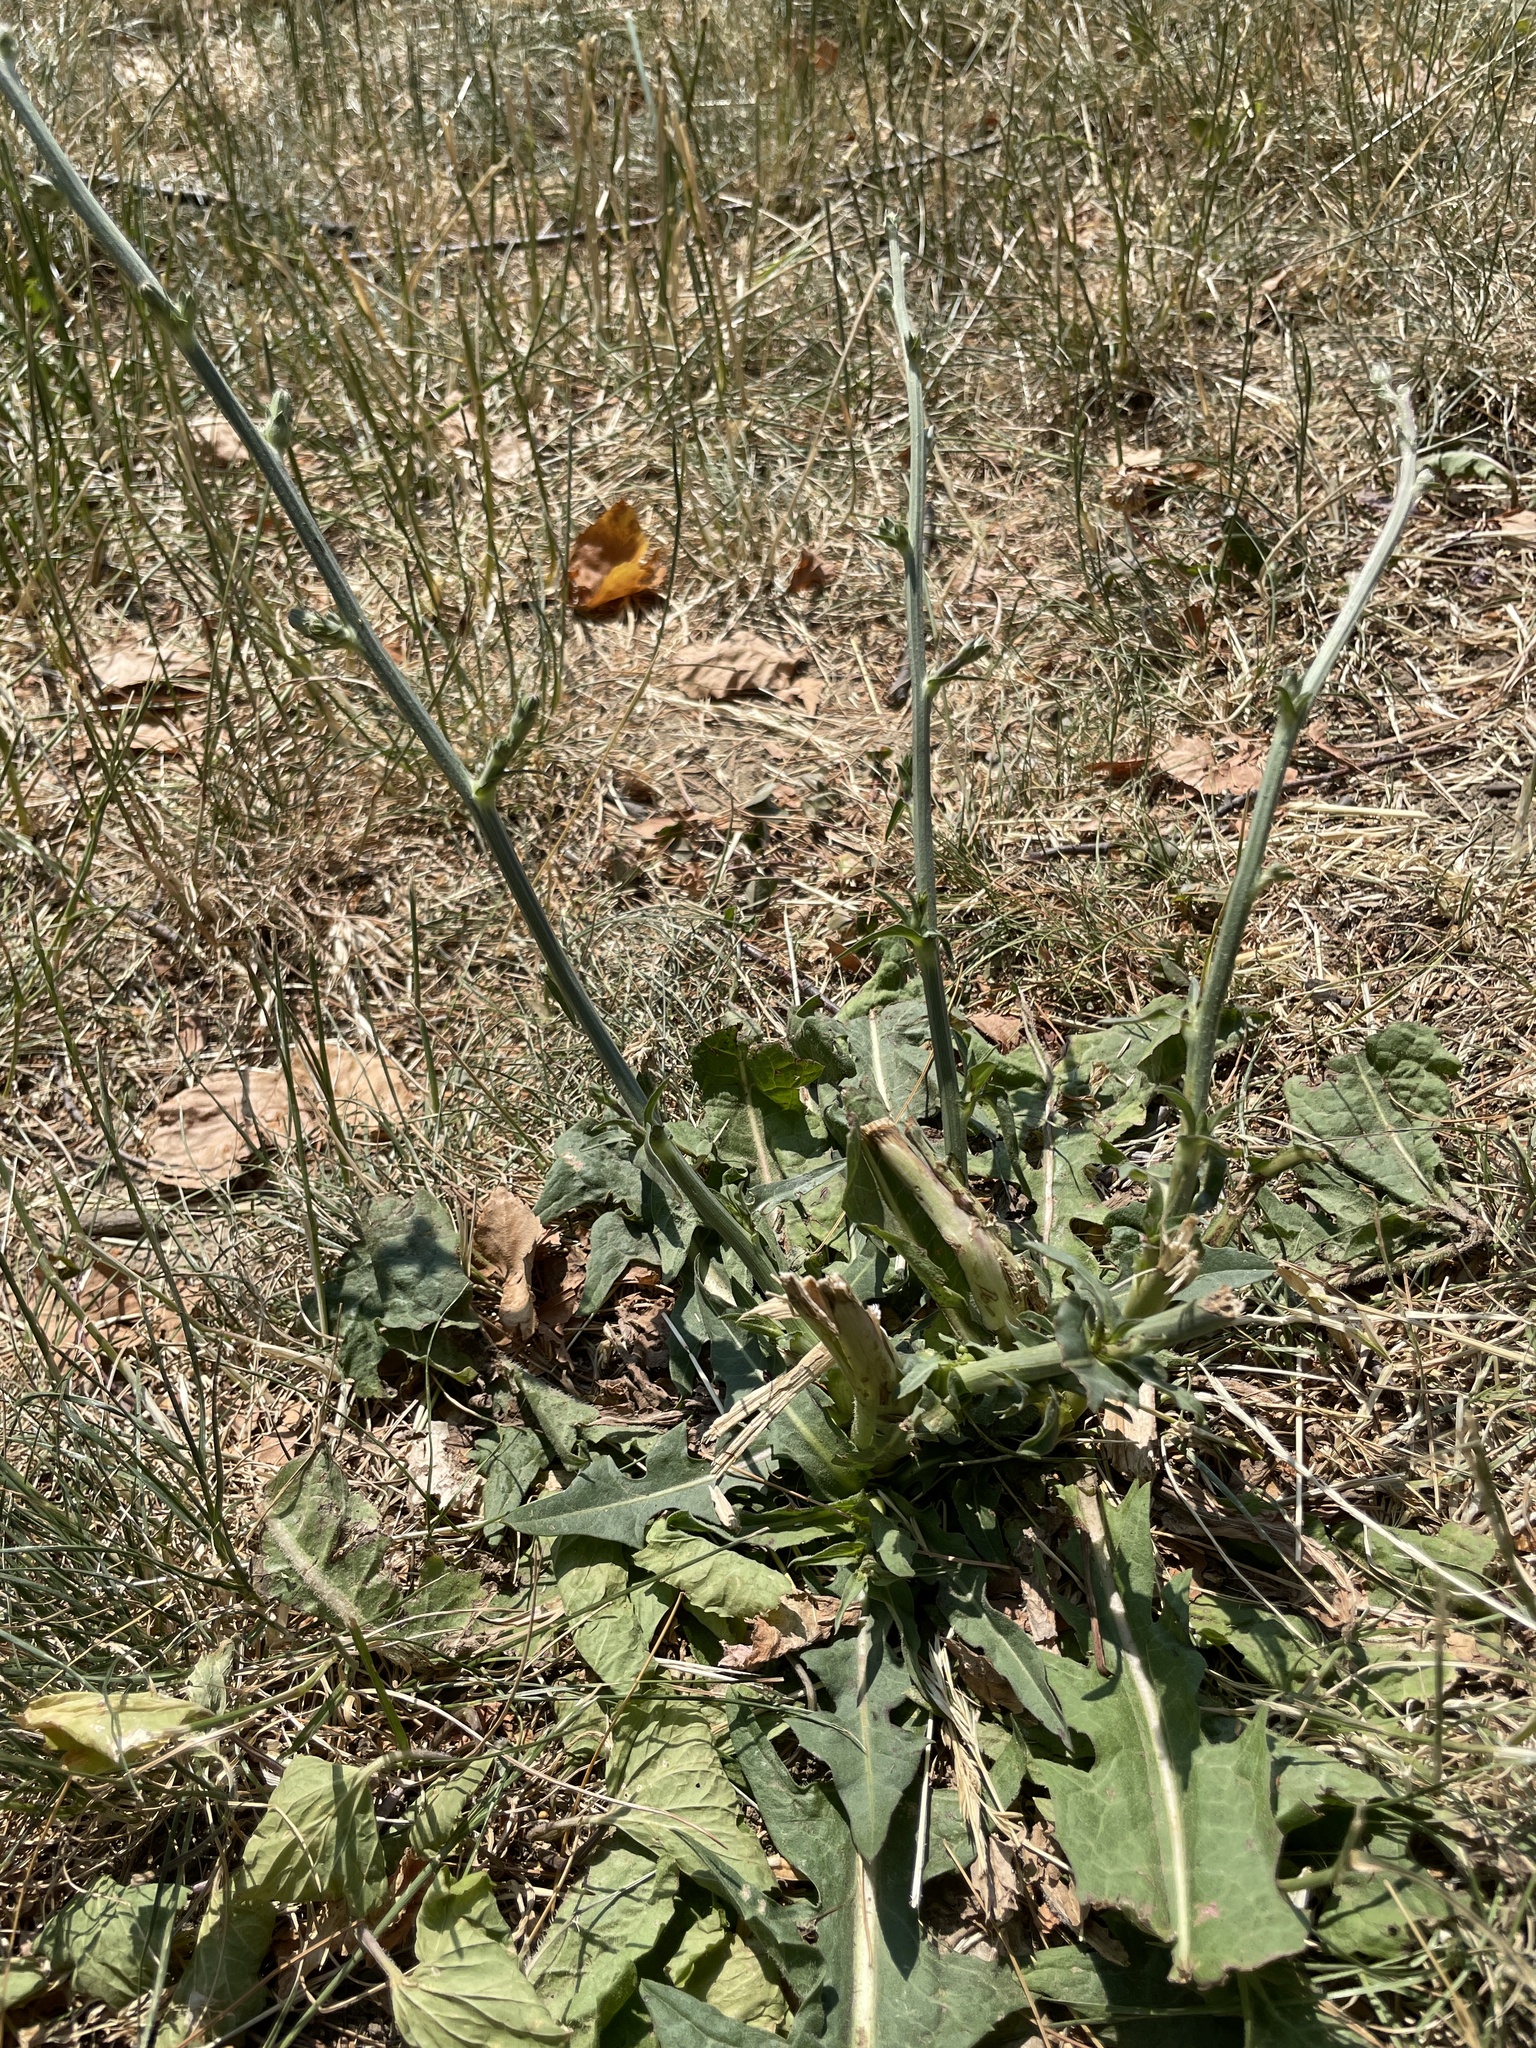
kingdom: Plantae
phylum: Tracheophyta
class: Magnoliopsida
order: Asterales
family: Asteraceae
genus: Cichorium
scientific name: Cichorium intybus
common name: Chicory
